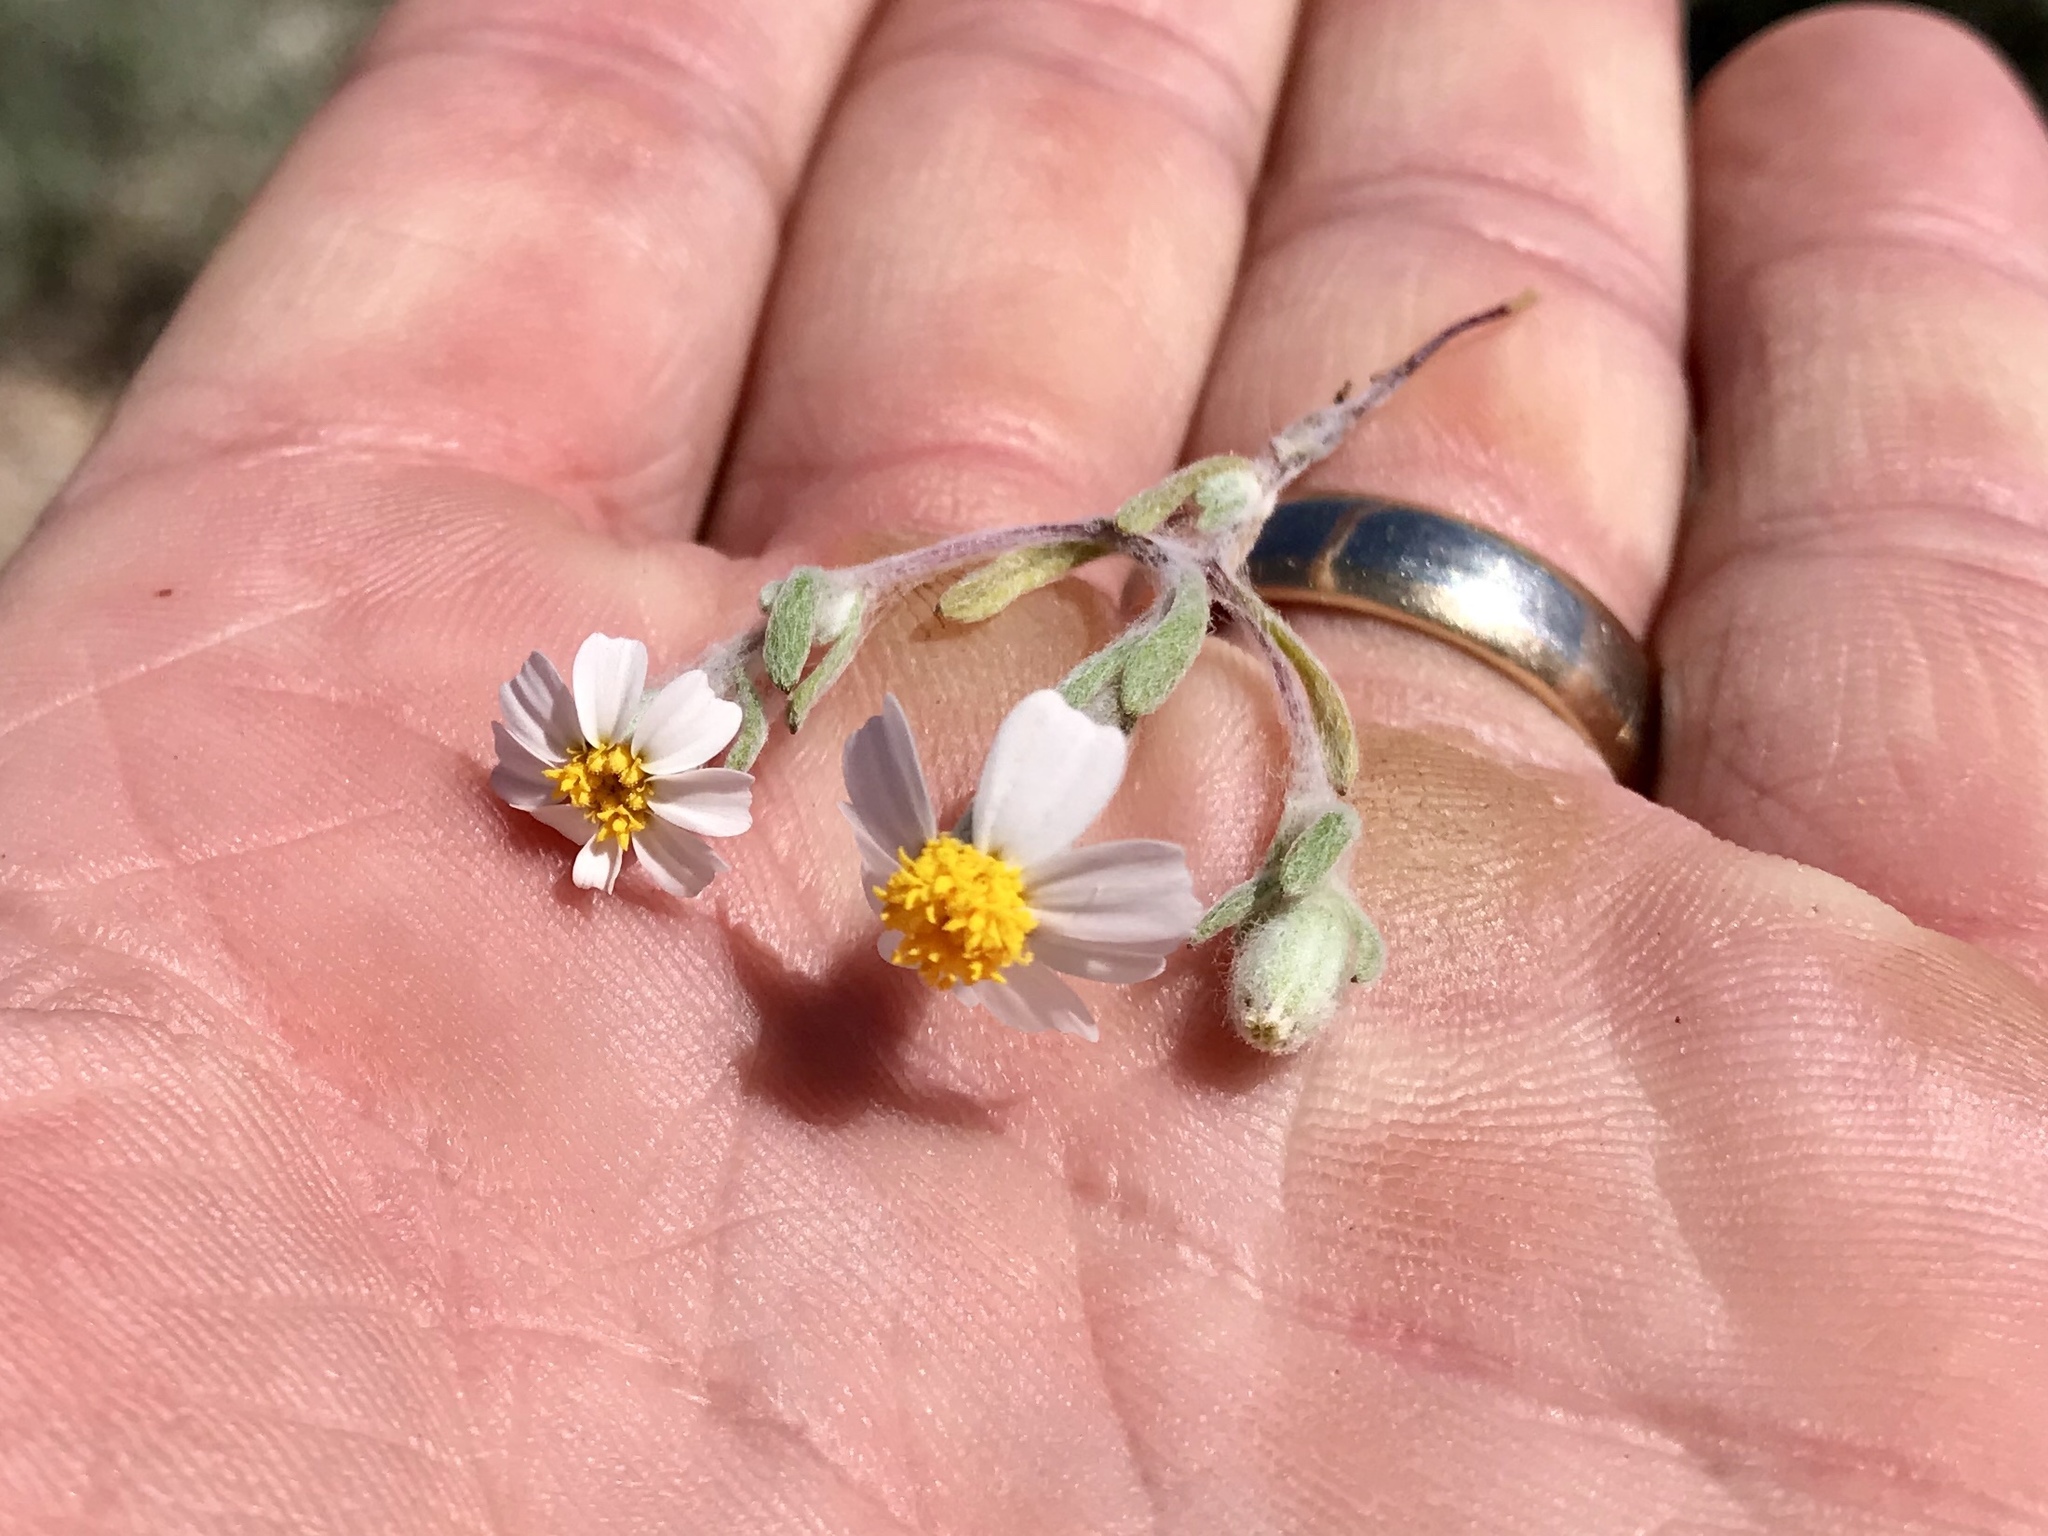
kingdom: Plantae
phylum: Tracheophyta
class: Magnoliopsida
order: Asterales
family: Asteraceae
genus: Eriophyllum
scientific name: Eriophyllum lanosum
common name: White easter-bonnets
